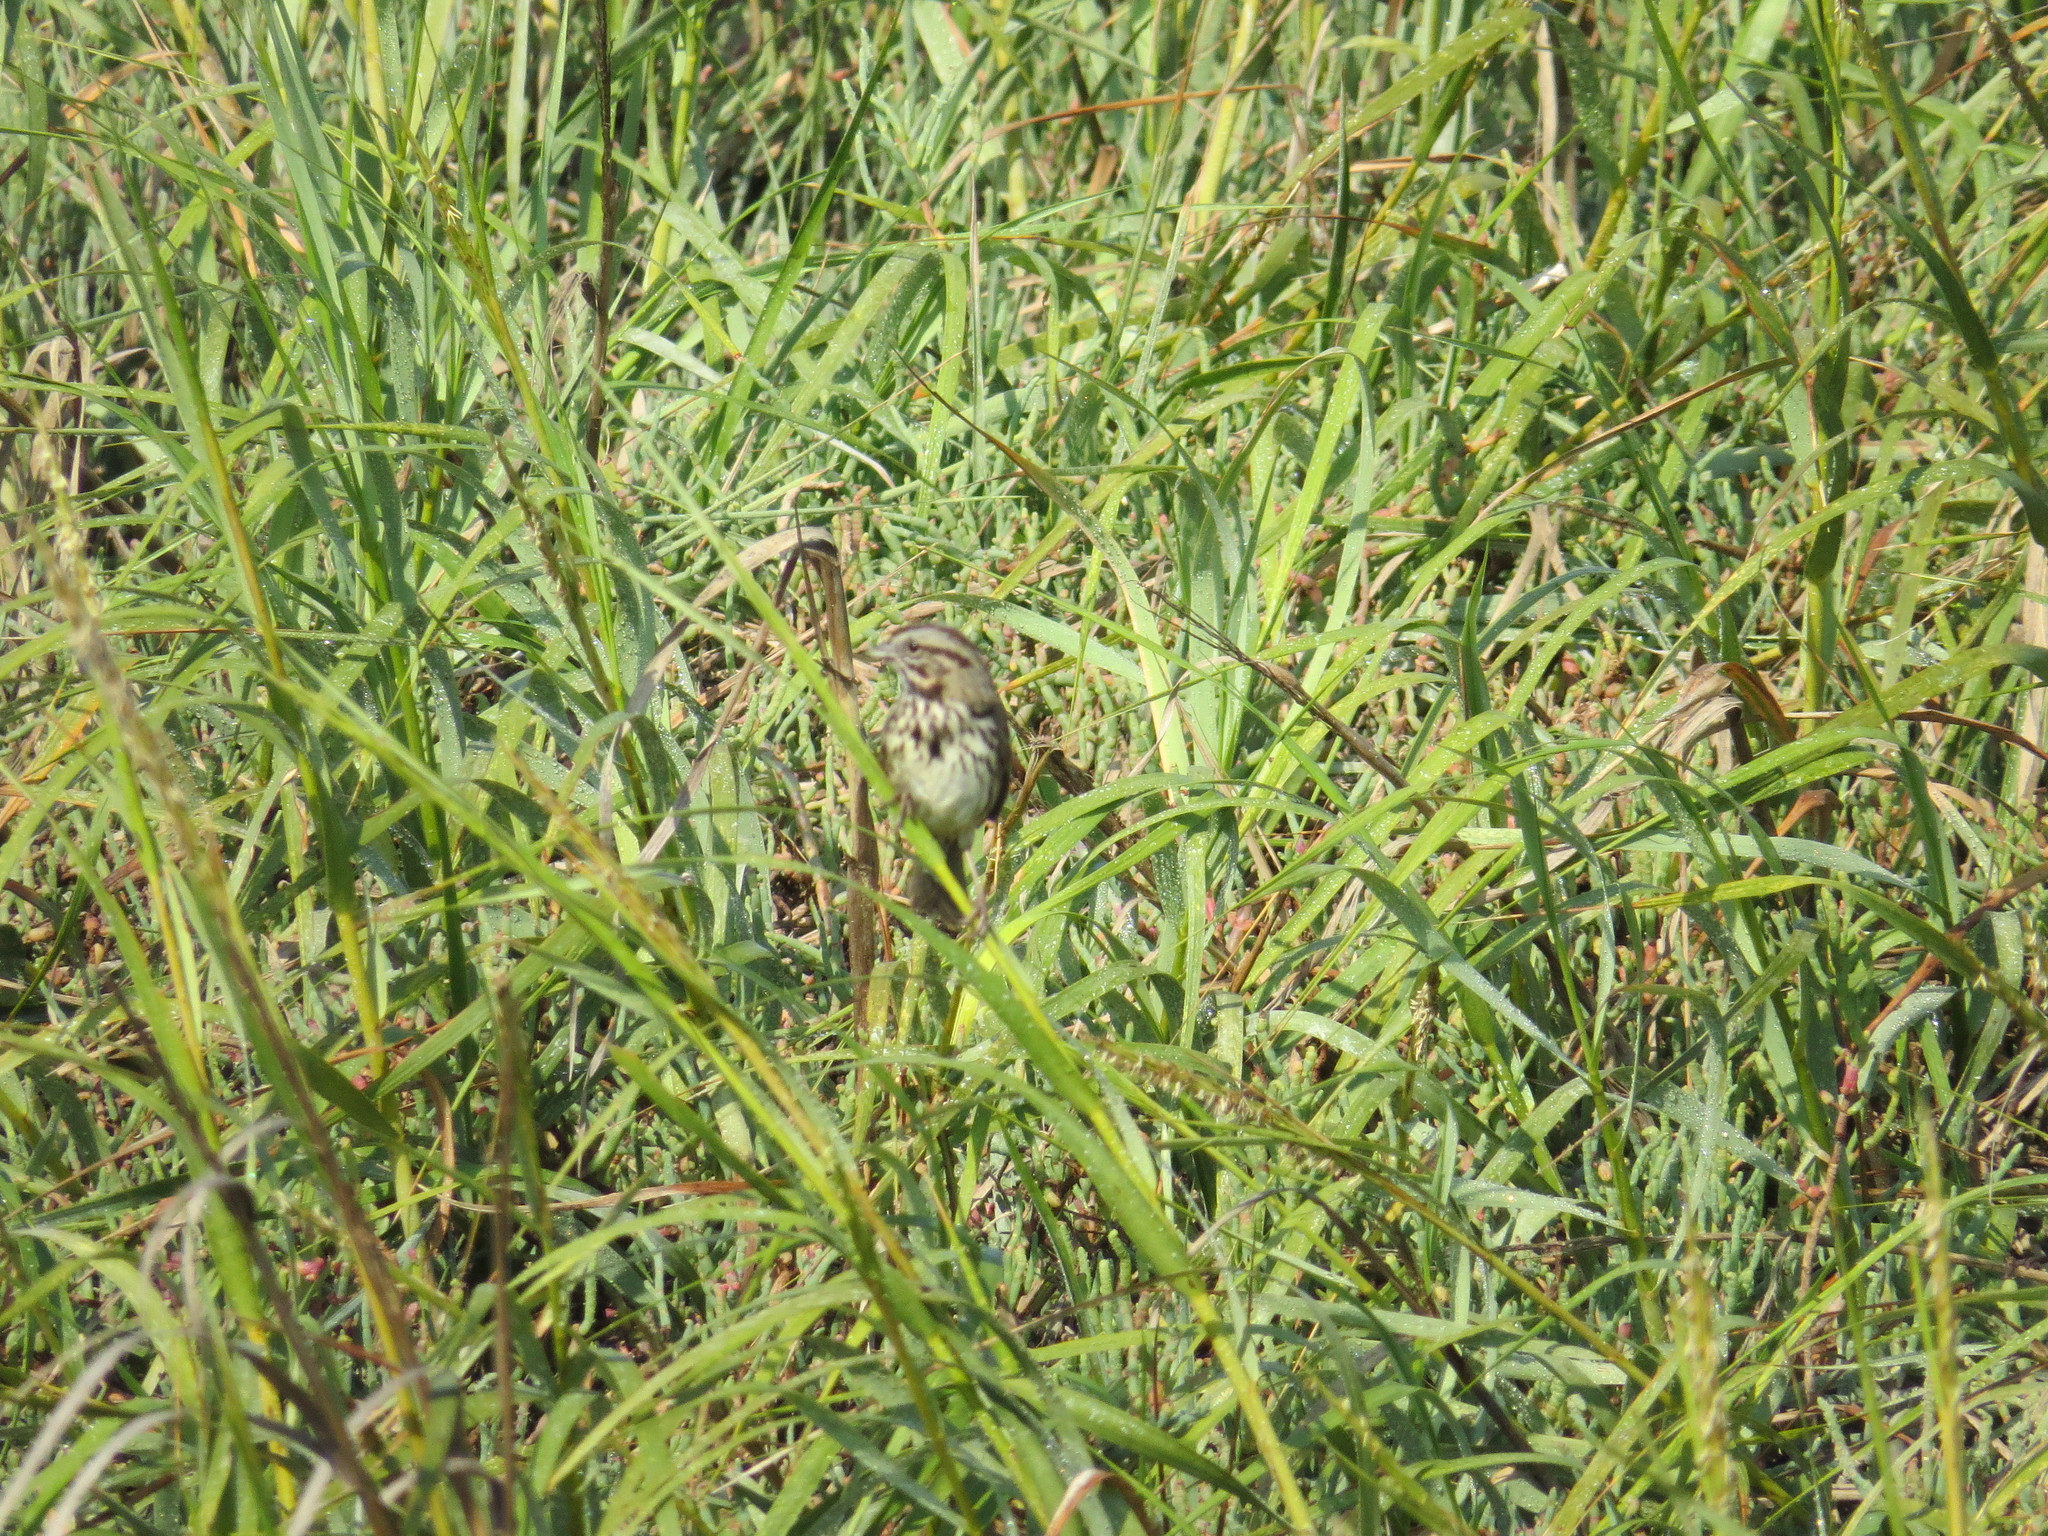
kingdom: Animalia
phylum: Chordata
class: Aves
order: Passeriformes
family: Passerellidae
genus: Melospiza
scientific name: Melospiza melodia
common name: Song sparrow
